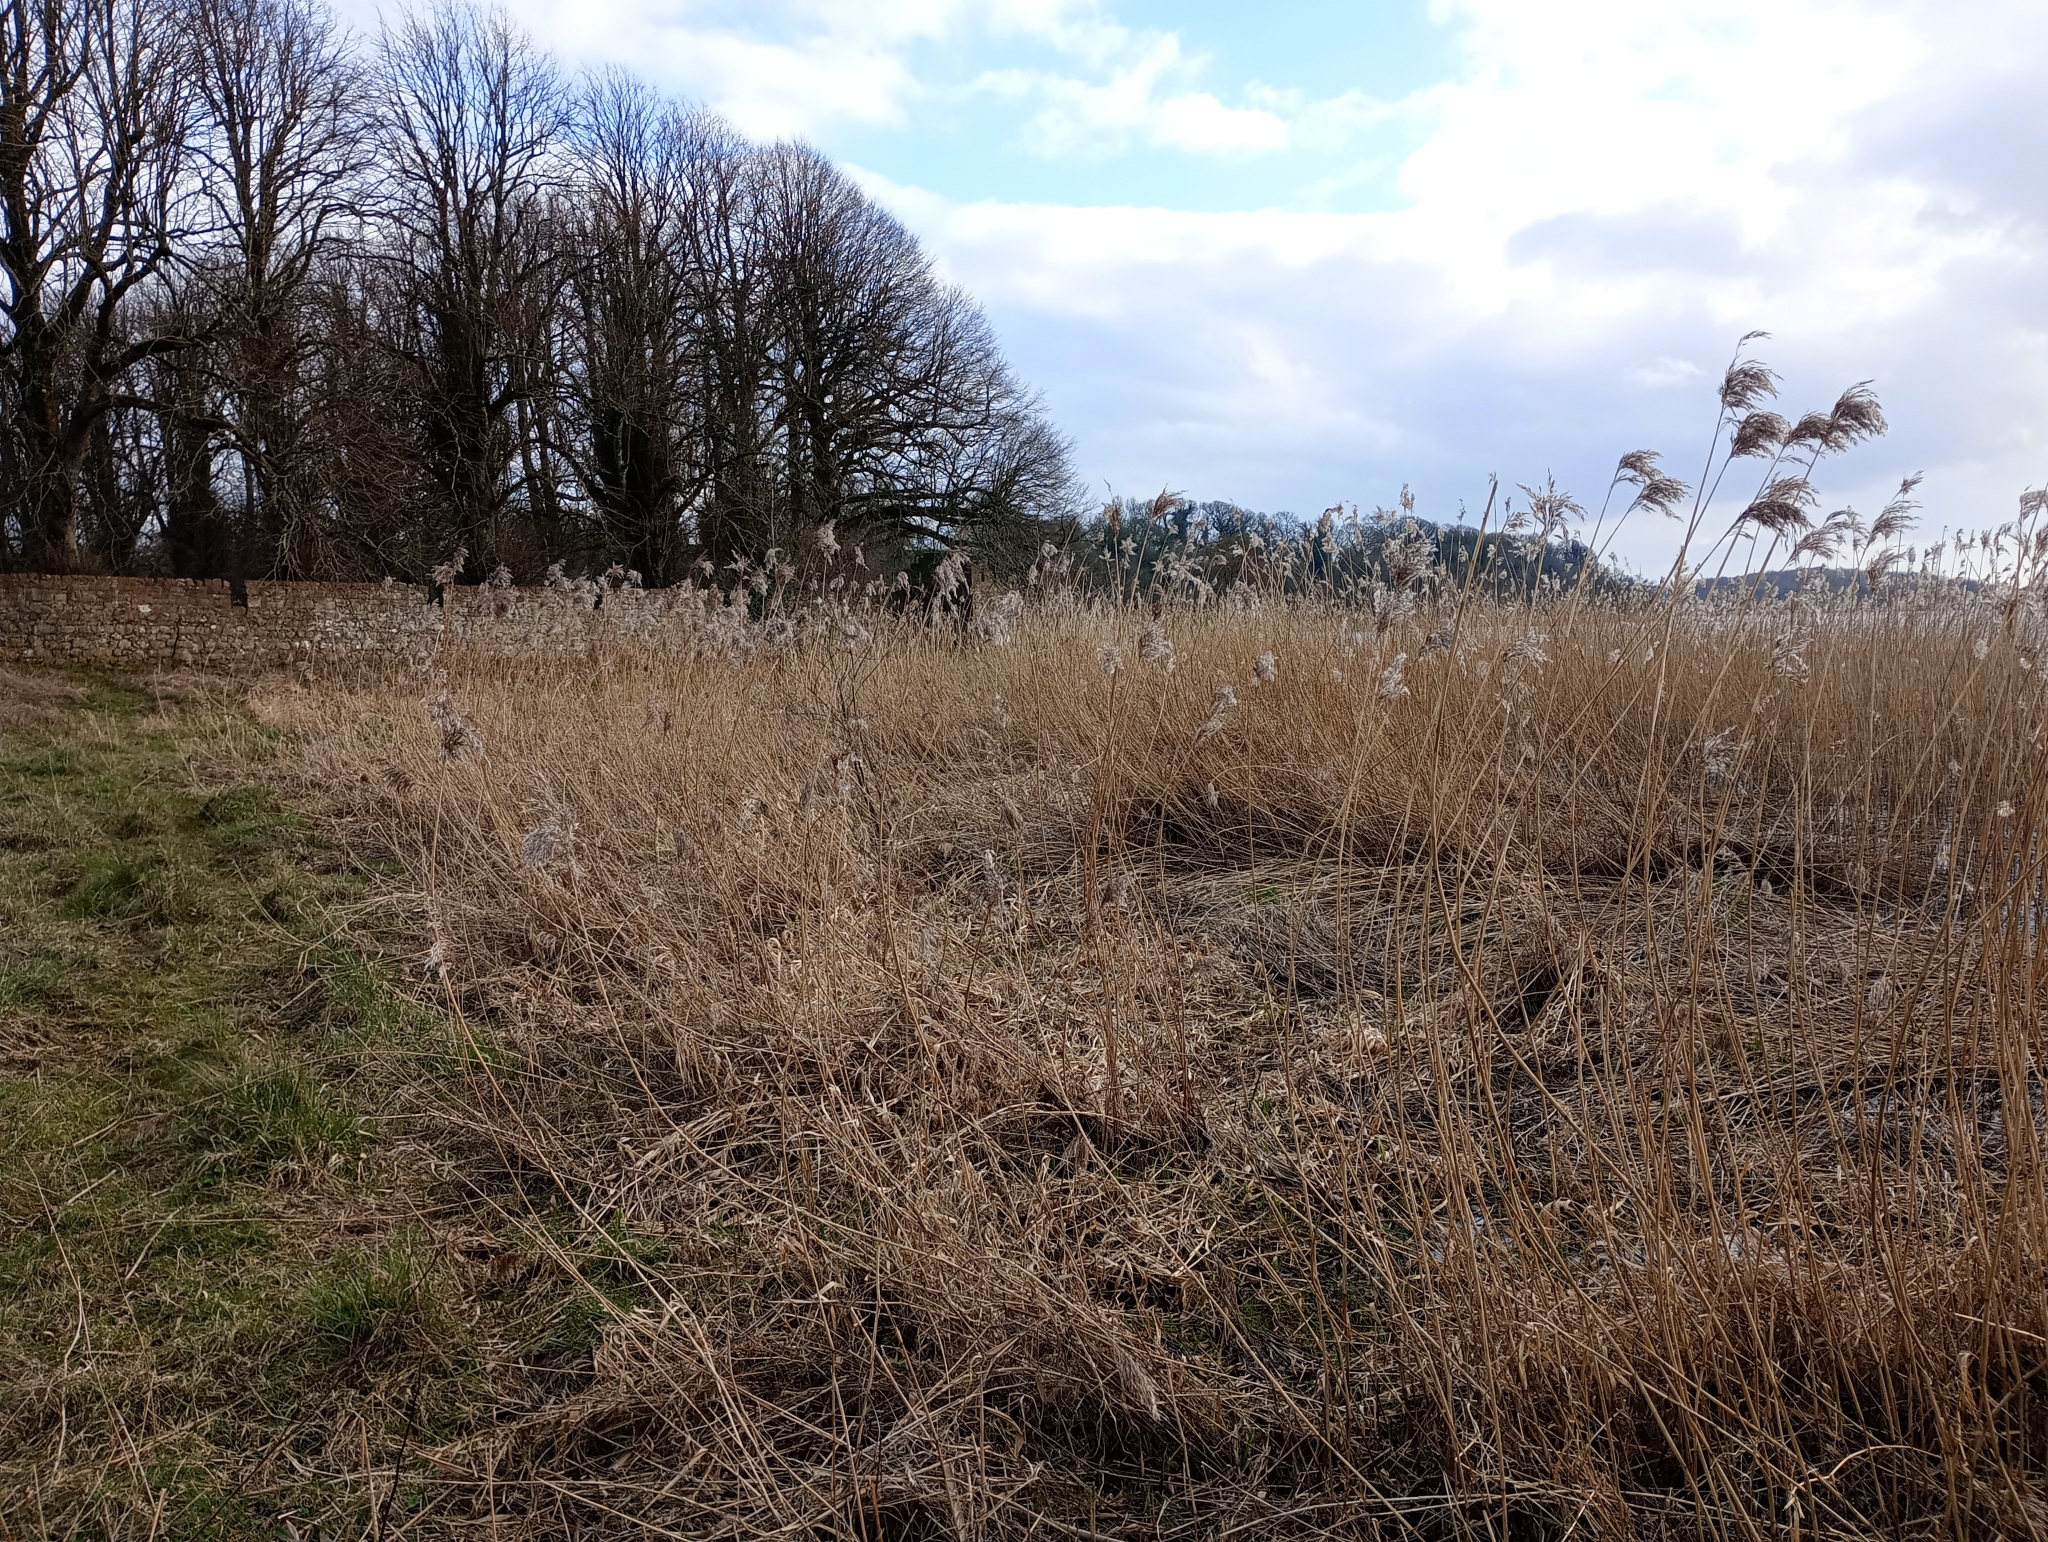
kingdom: Plantae
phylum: Tracheophyta
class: Liliopsida
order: Poales
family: Poaceae
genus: Phragmites
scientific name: Phragmites australis
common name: Common reed
